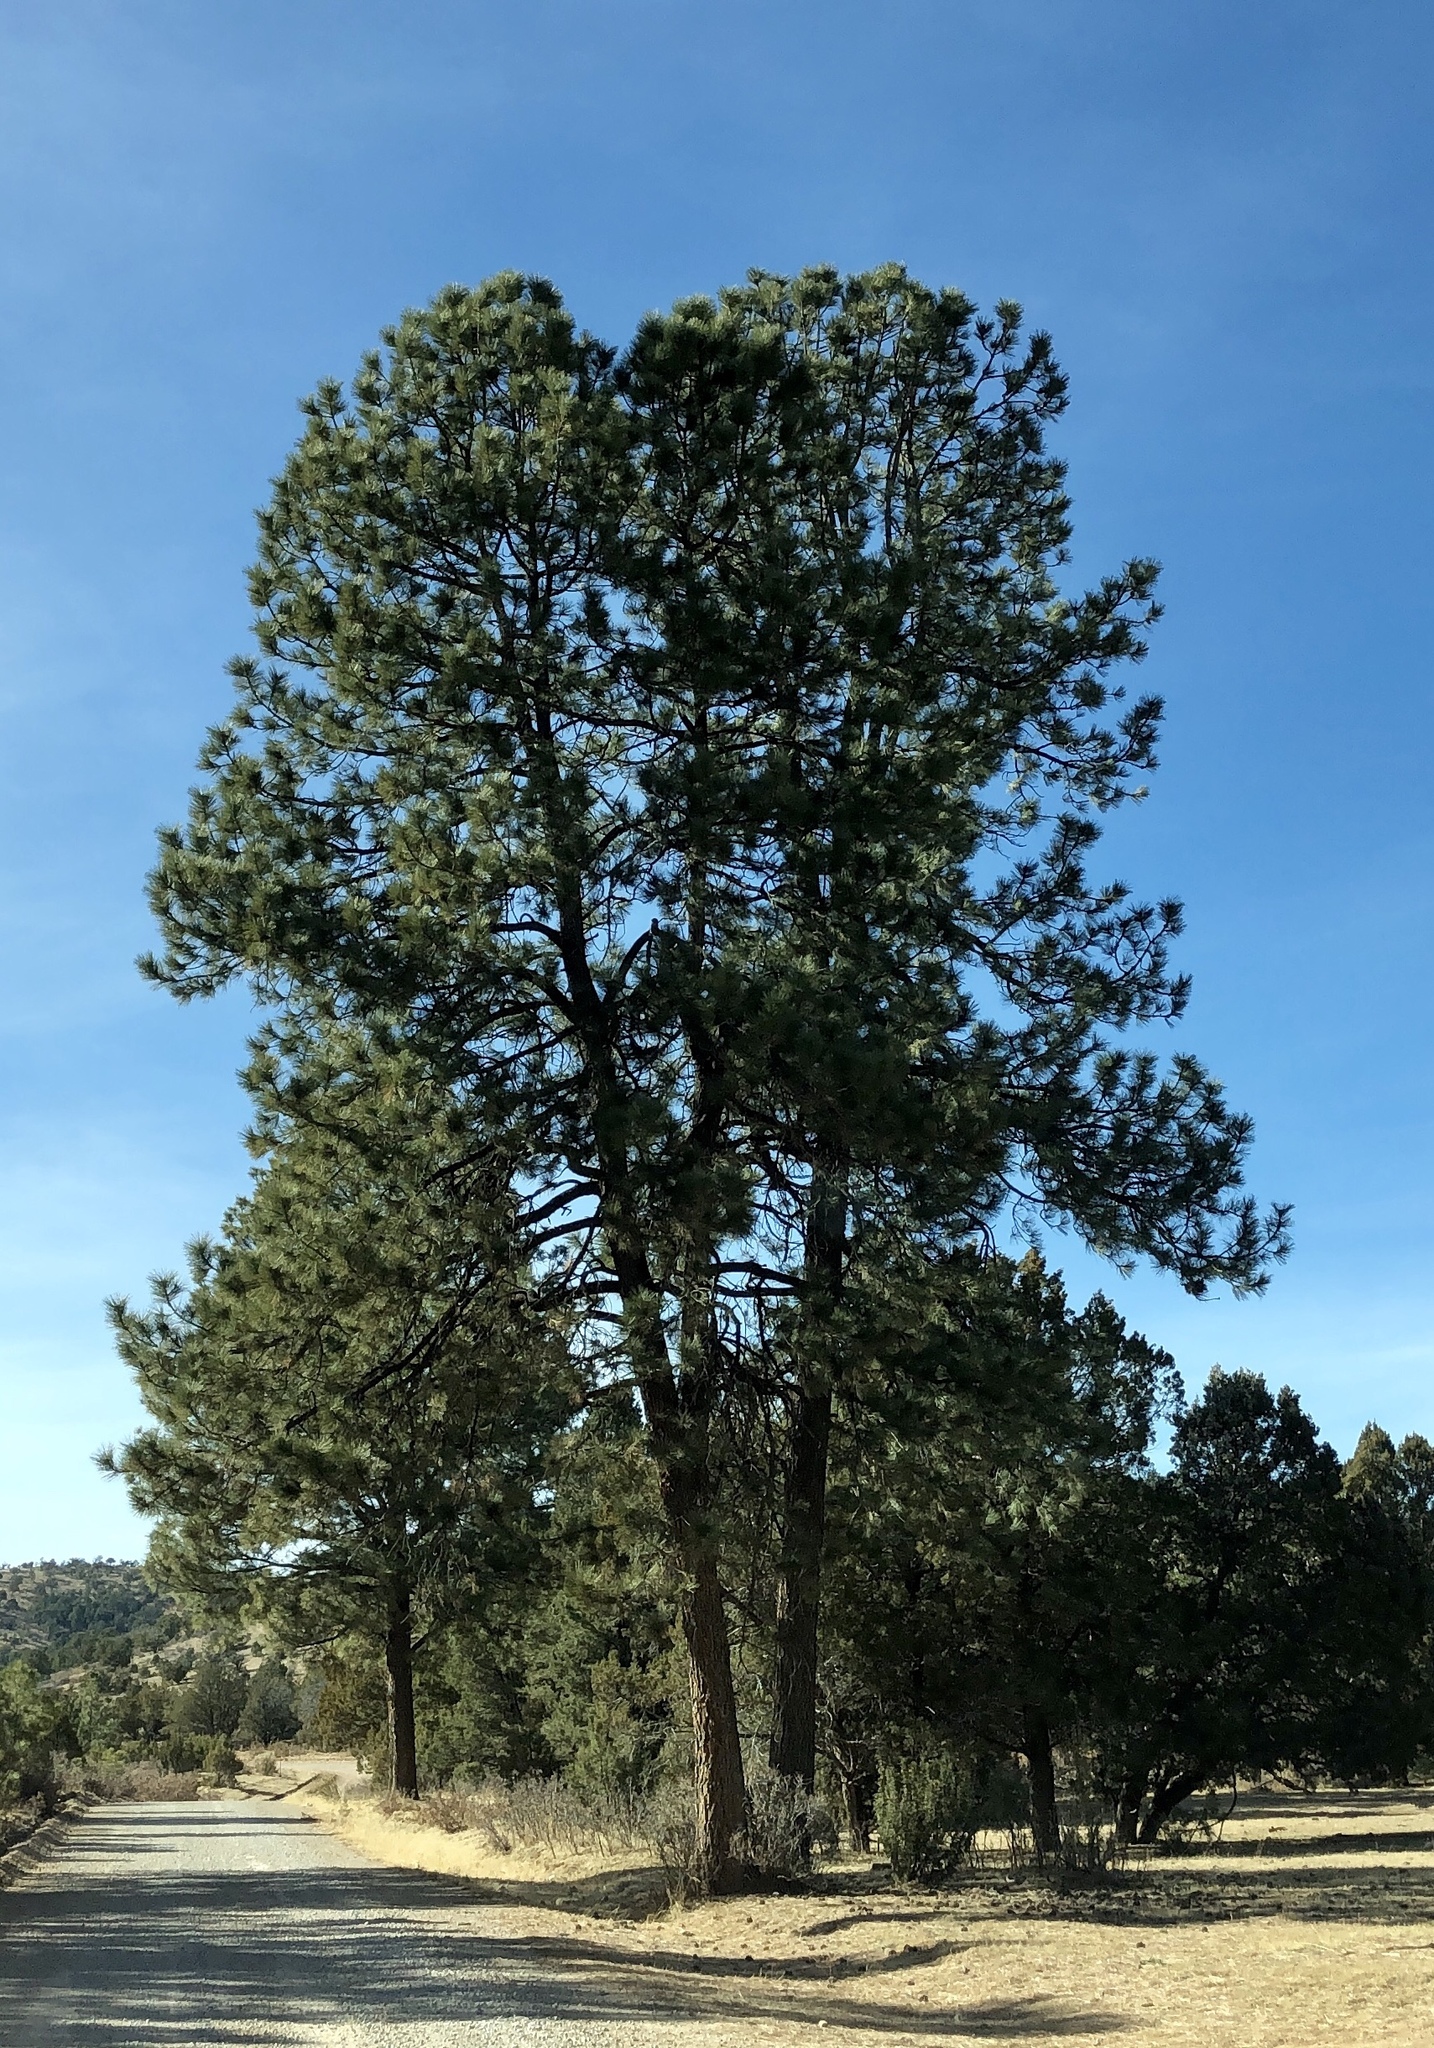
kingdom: Plantae
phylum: Tracheophyta
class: Pinopsida
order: Pinales
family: Pinaceae
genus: Pinus
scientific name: Pinus ponderosa
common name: Western yellow-pine
